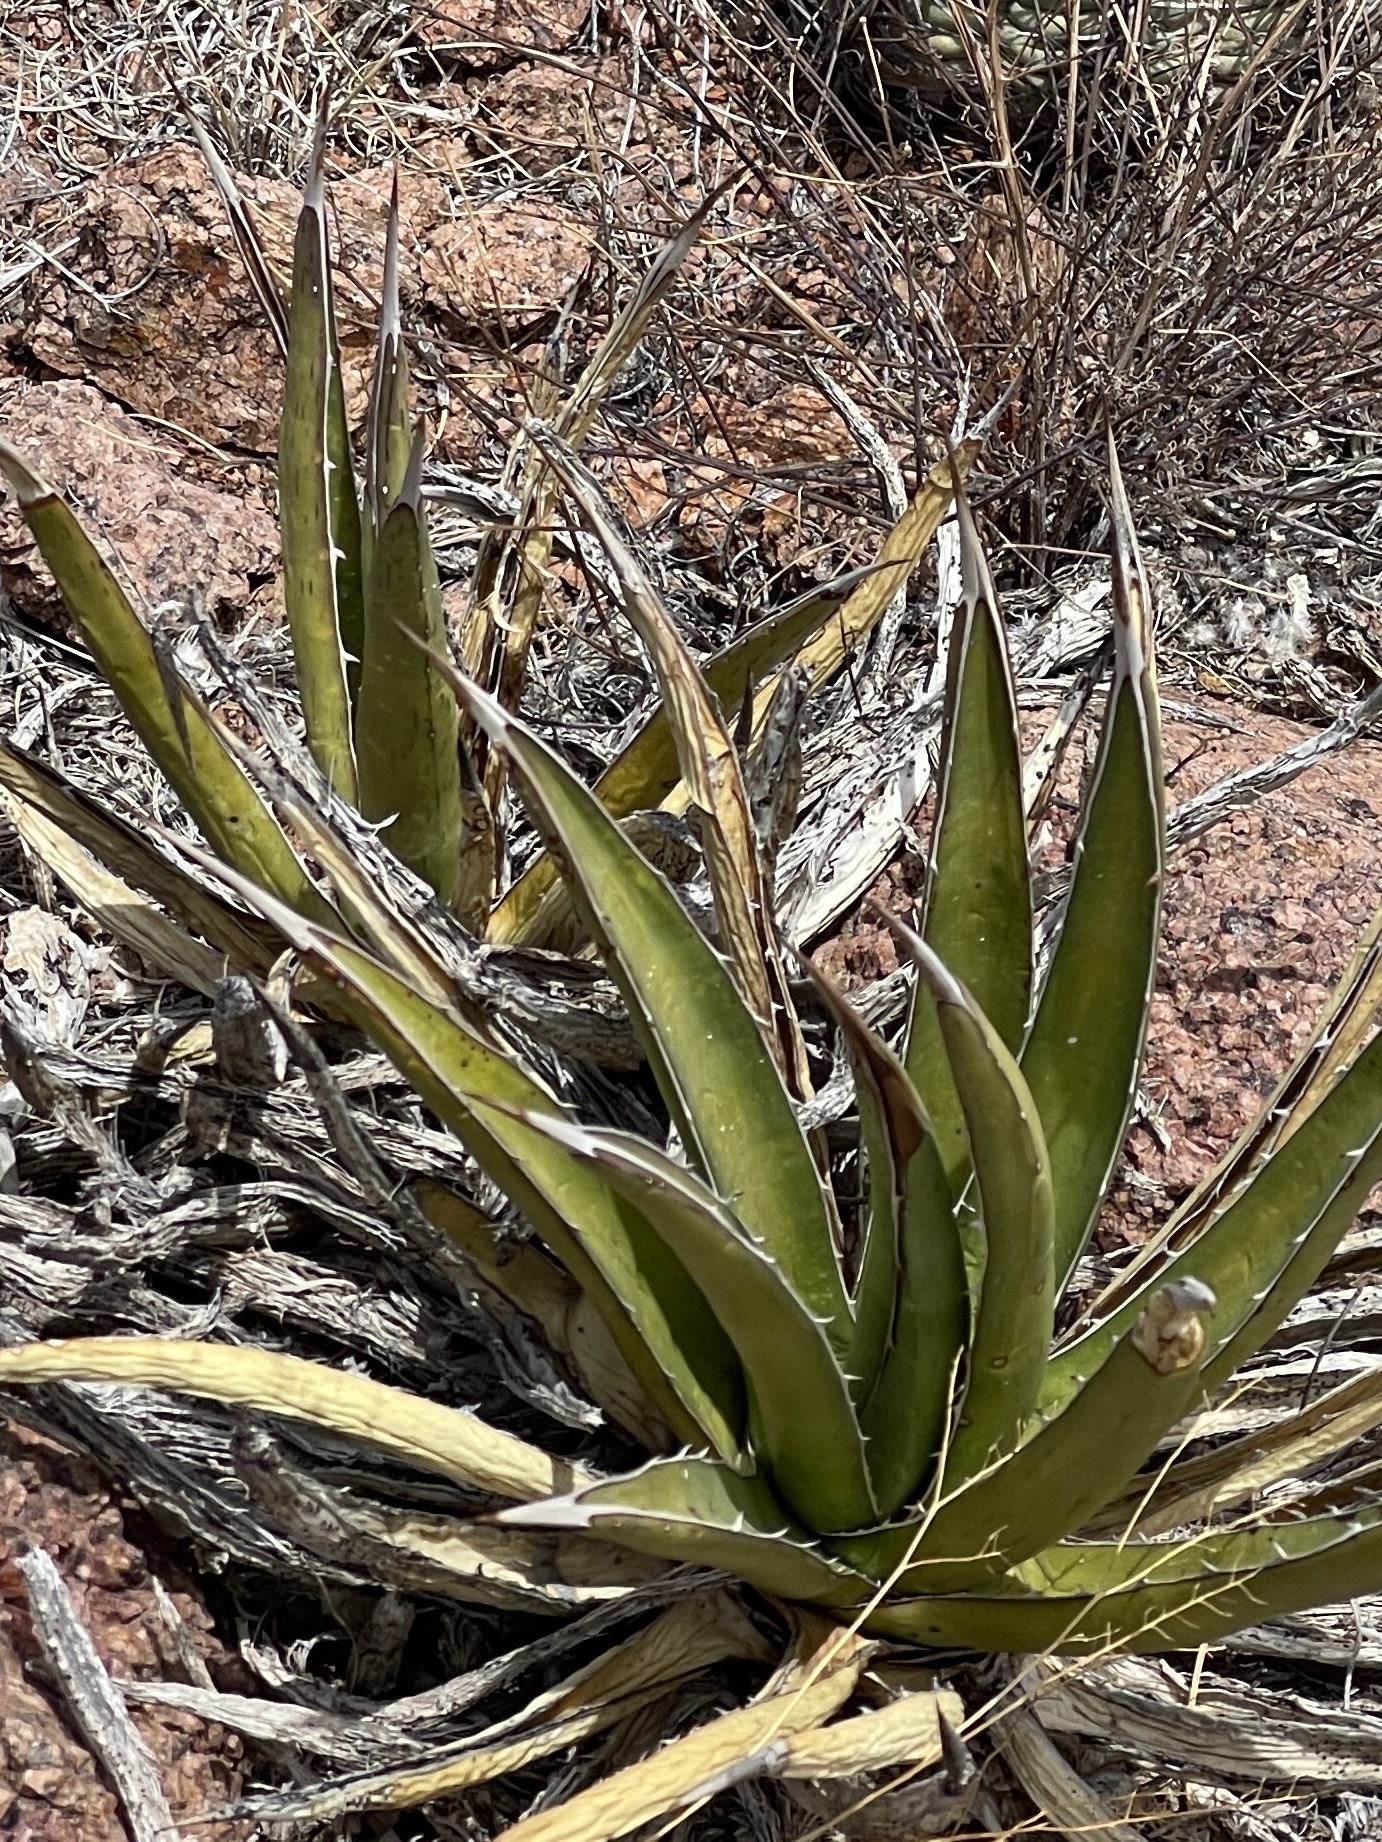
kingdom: Plantae
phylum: Tracheophyta
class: Liliopsida
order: Asparagales
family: Asparagaceae
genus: Agave
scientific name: Agave lechuguilla
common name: Lecheguilla agave
